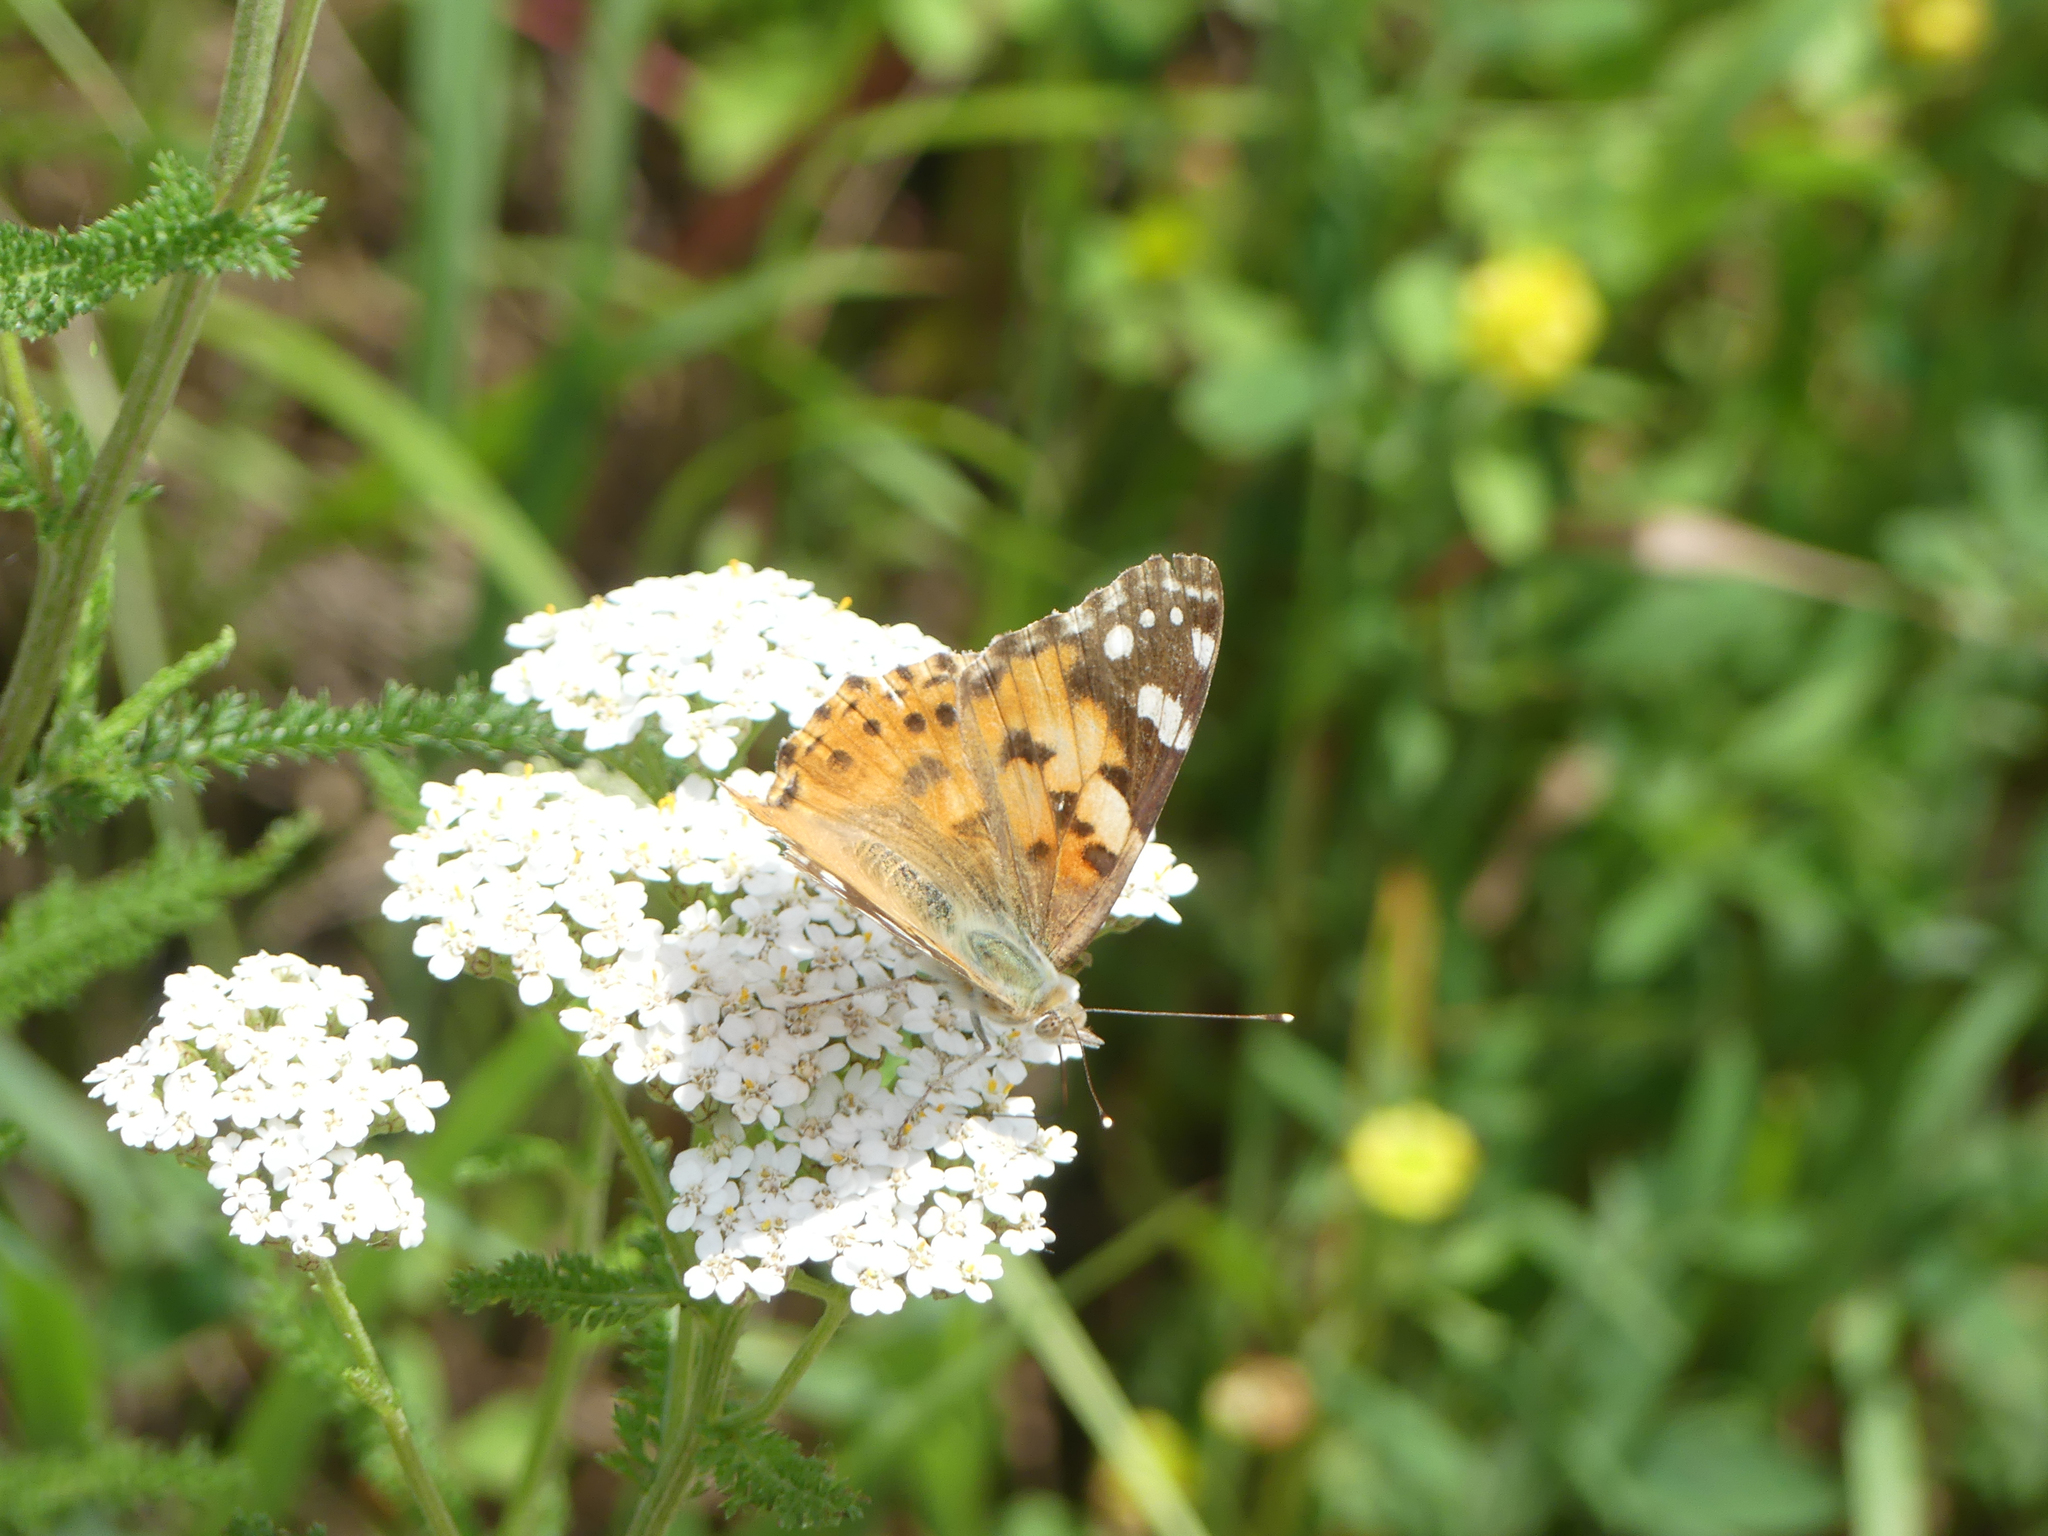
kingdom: Animalia
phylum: Arthropoda
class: Insecta
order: Lepidoptera
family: Nymphalidae
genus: Vanessa
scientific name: Vanessa cardui
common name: Painted lady
